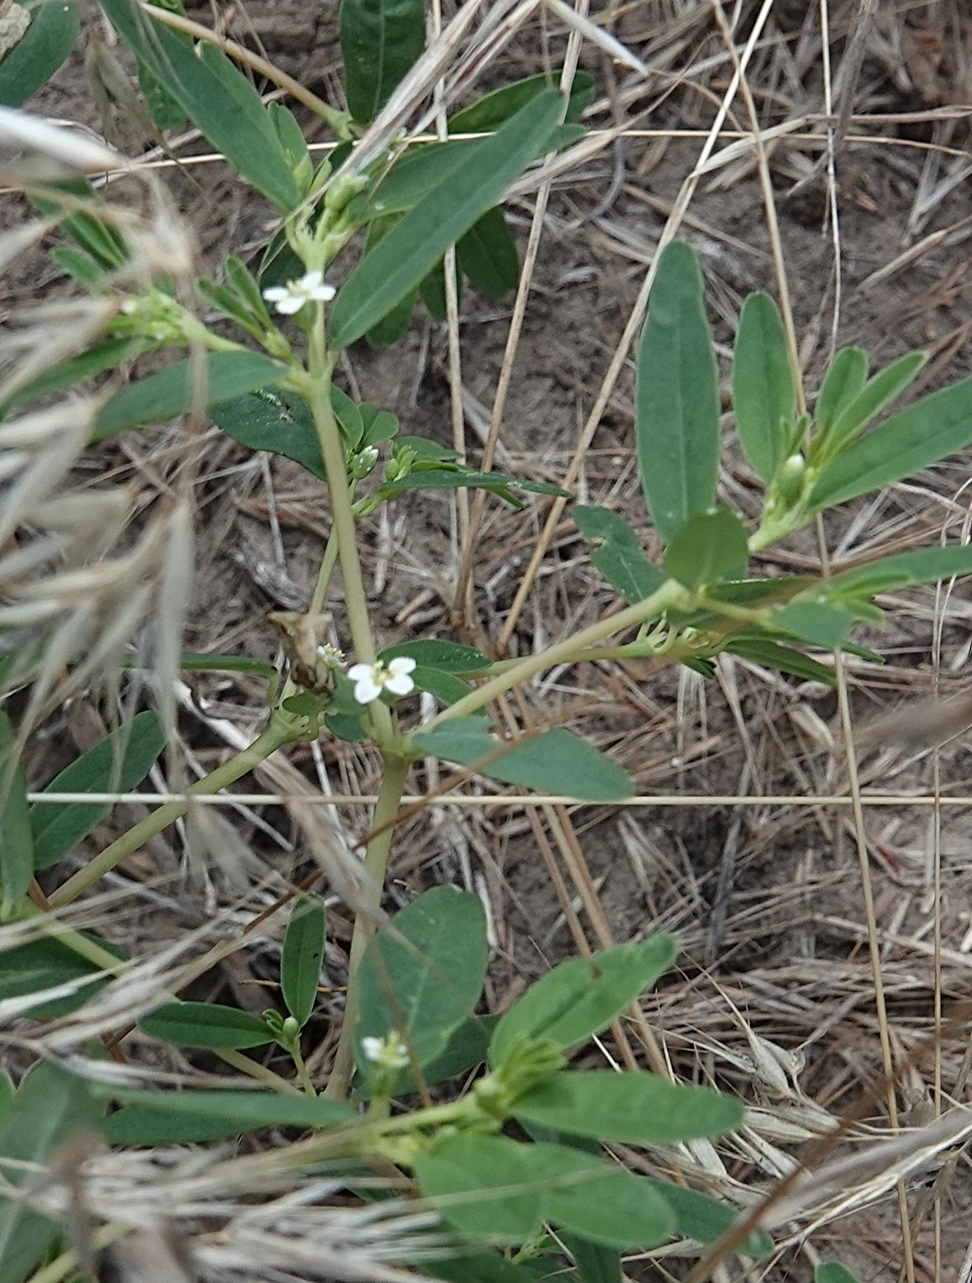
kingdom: Plantae
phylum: Tracheophyta
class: Magnoliopsida
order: Malpighiales
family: Euphorbiaceae
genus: Euphorbia
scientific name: Euphorbia missurica
